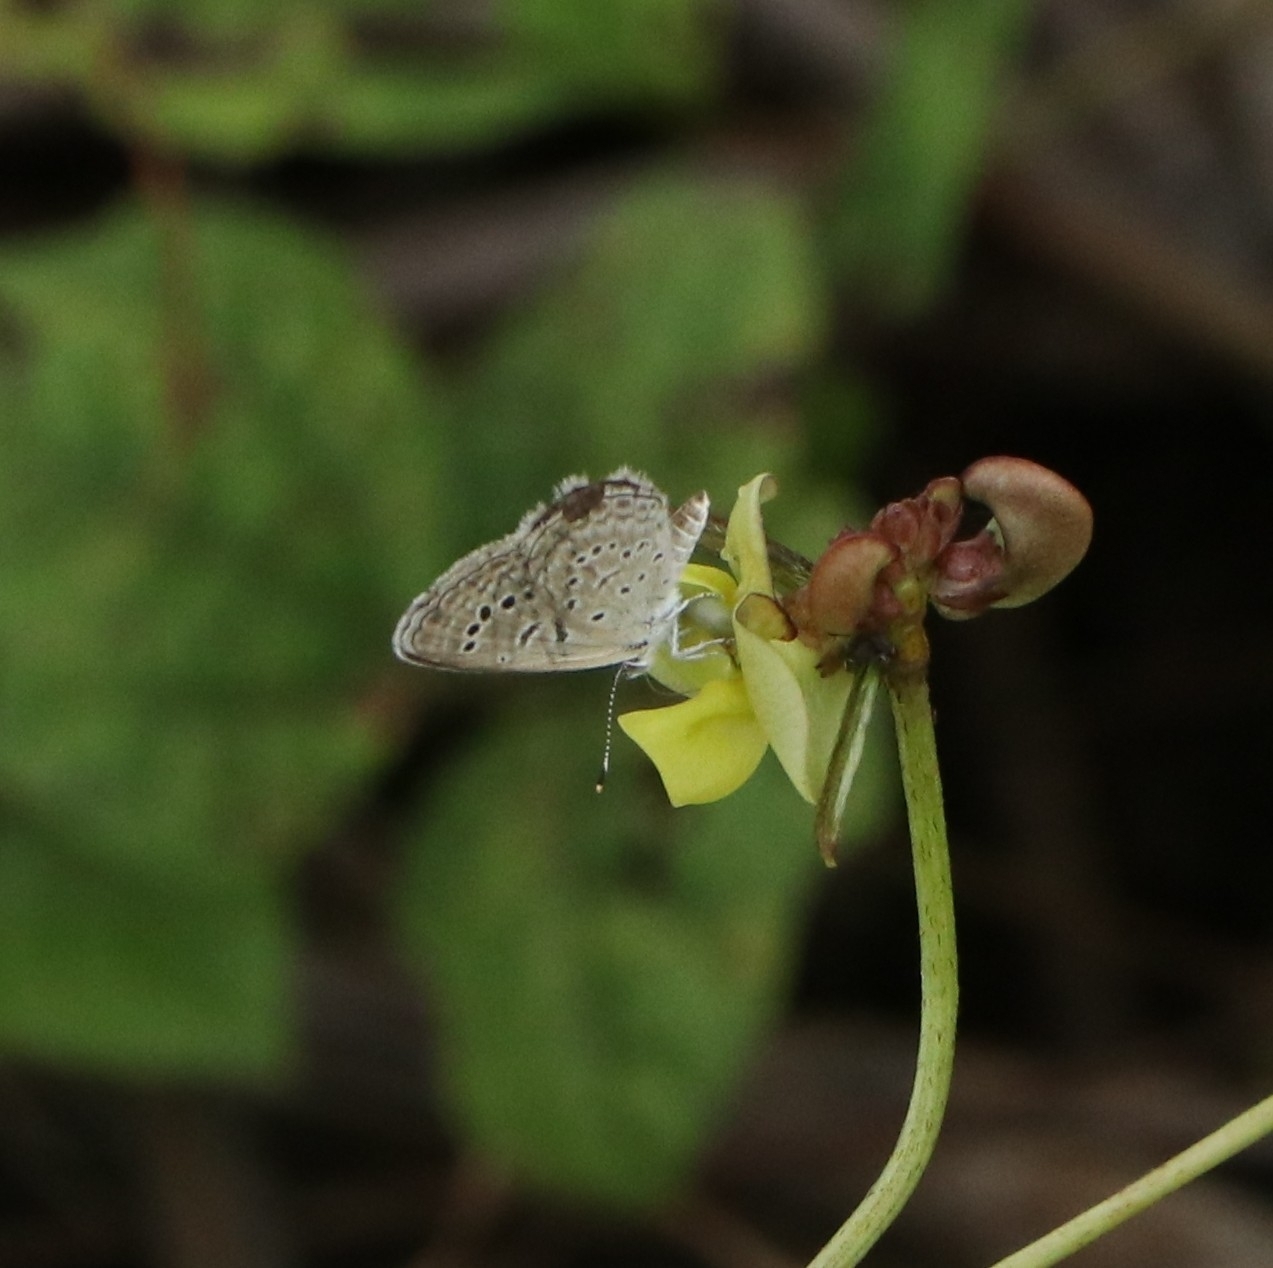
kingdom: Animalia
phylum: Arthropoda
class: Insecta
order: Lepidoptera
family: Lycaenidae
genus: Zizeeria
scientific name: Zizeeria karsandra
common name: Dark grass blue
